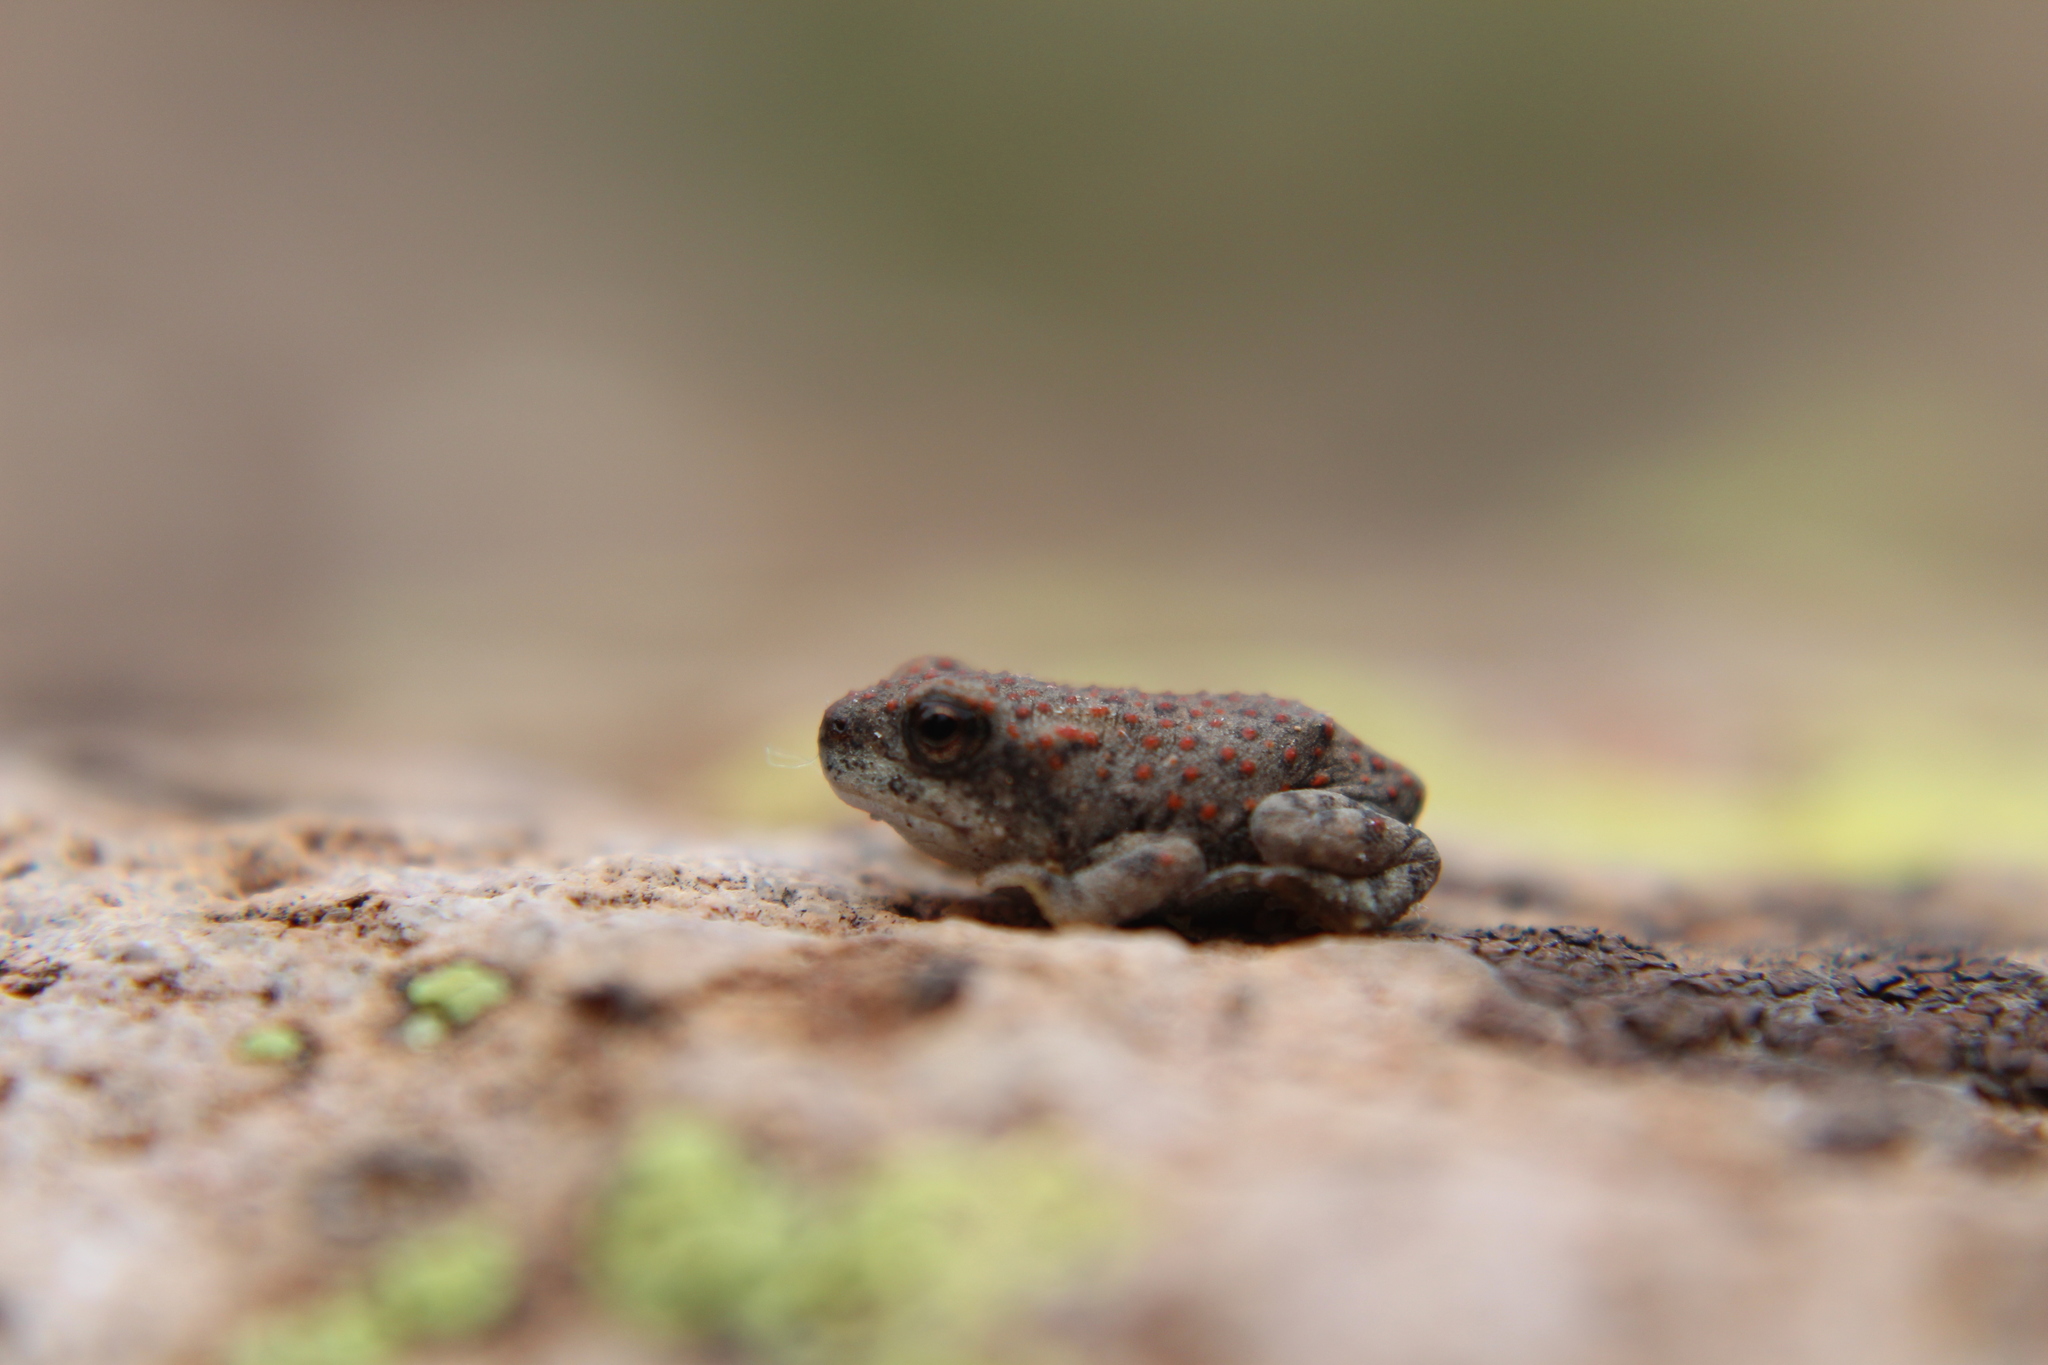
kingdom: Animalia
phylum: Chordata
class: Amphibia
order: Anura
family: Bufonidae
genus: Anaxyrus
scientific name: Anaxyrus punctatus
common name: Red-spotted toad
